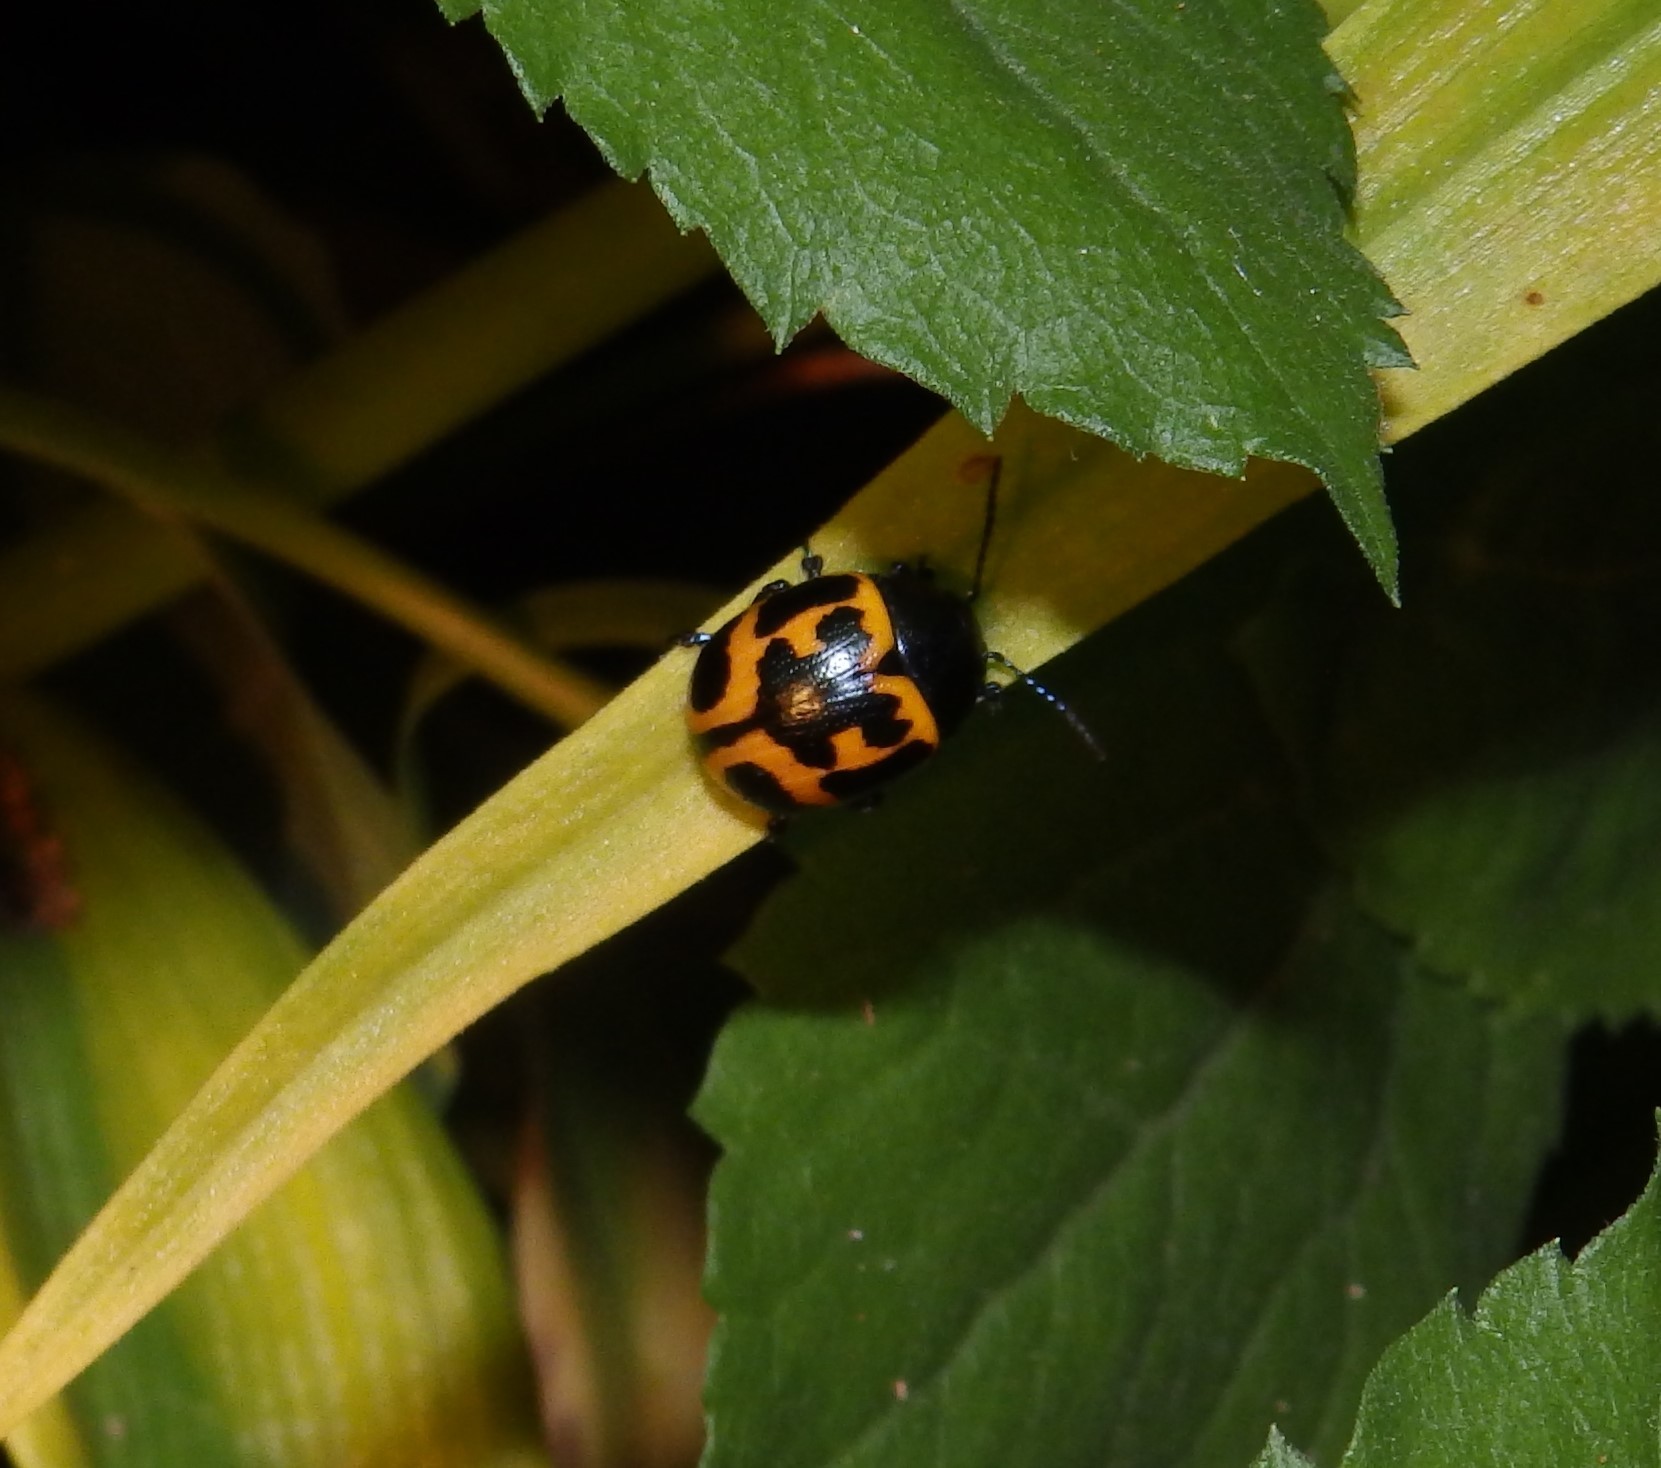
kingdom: Animalia
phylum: Arthropoda
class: Insecta
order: Coleoptera
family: Chrysomelidae
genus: Labidomera
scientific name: Labidomera clivicollis
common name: Swamp milkweed leaf beetle
